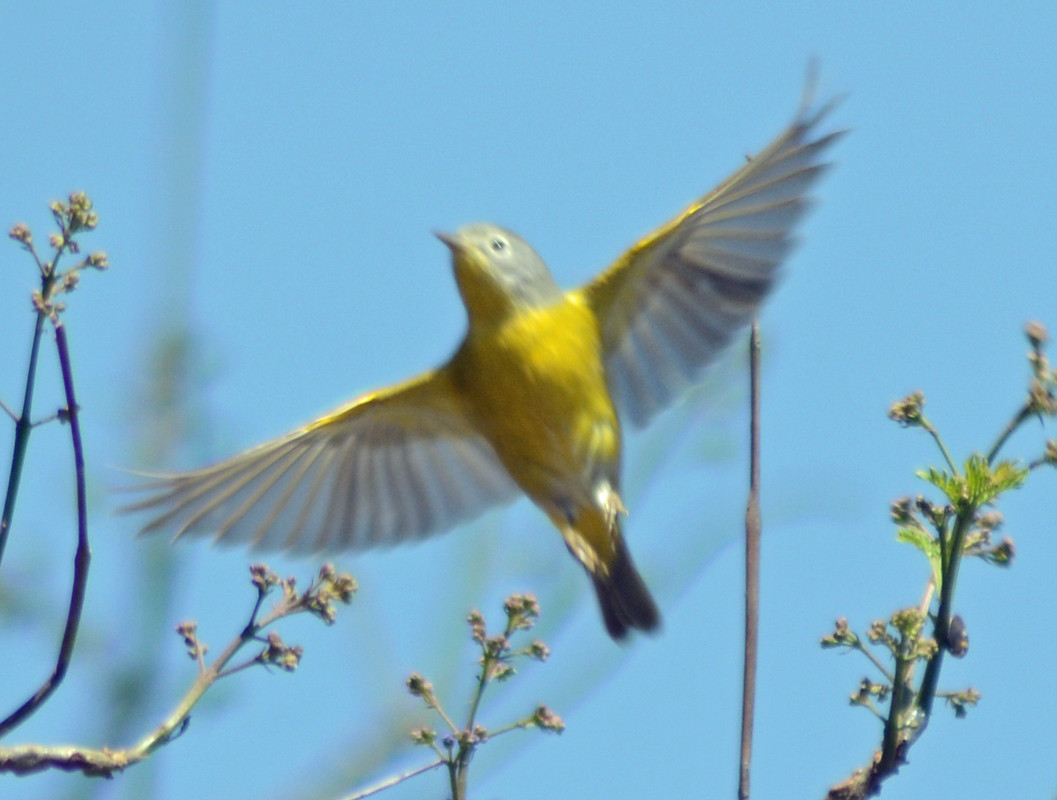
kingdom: Animalia
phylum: Chordata
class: Aves
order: Passeriformes
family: Parulidae
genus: Leiothlypis
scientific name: Leiothlypis ruficapilla
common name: Nashville warbler
